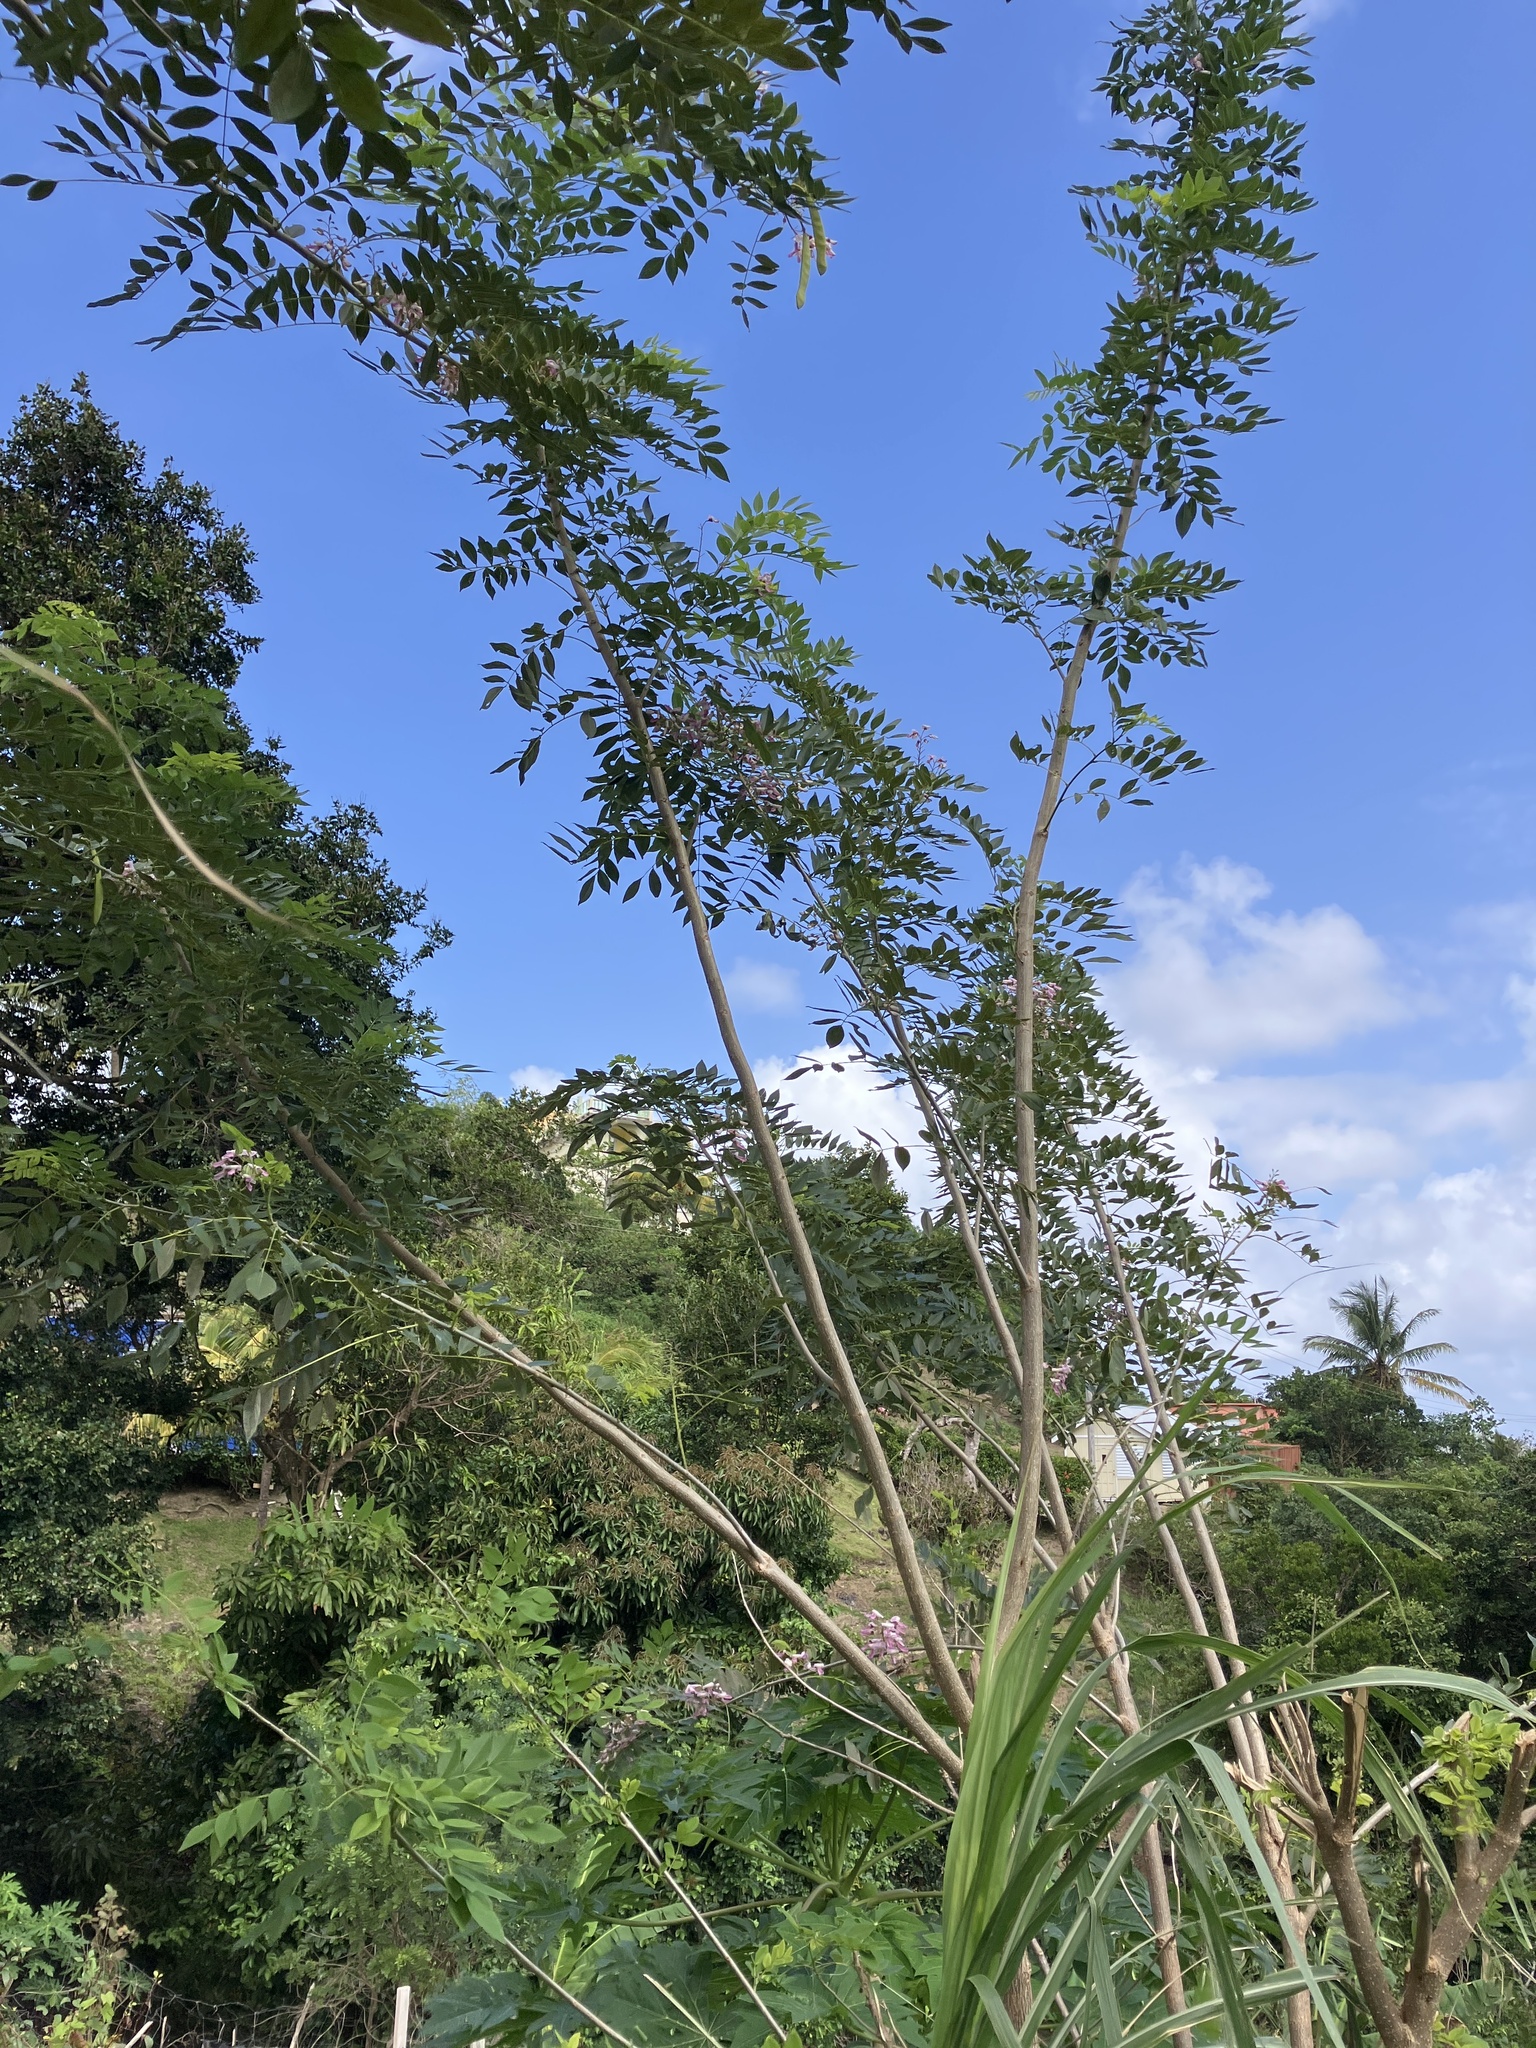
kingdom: Plantae
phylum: Tracheophyta
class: Magnoliopsida
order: Fabales
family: Fabaceae
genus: Gliricidia
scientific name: Gliricidia sepium
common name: Quickstick
